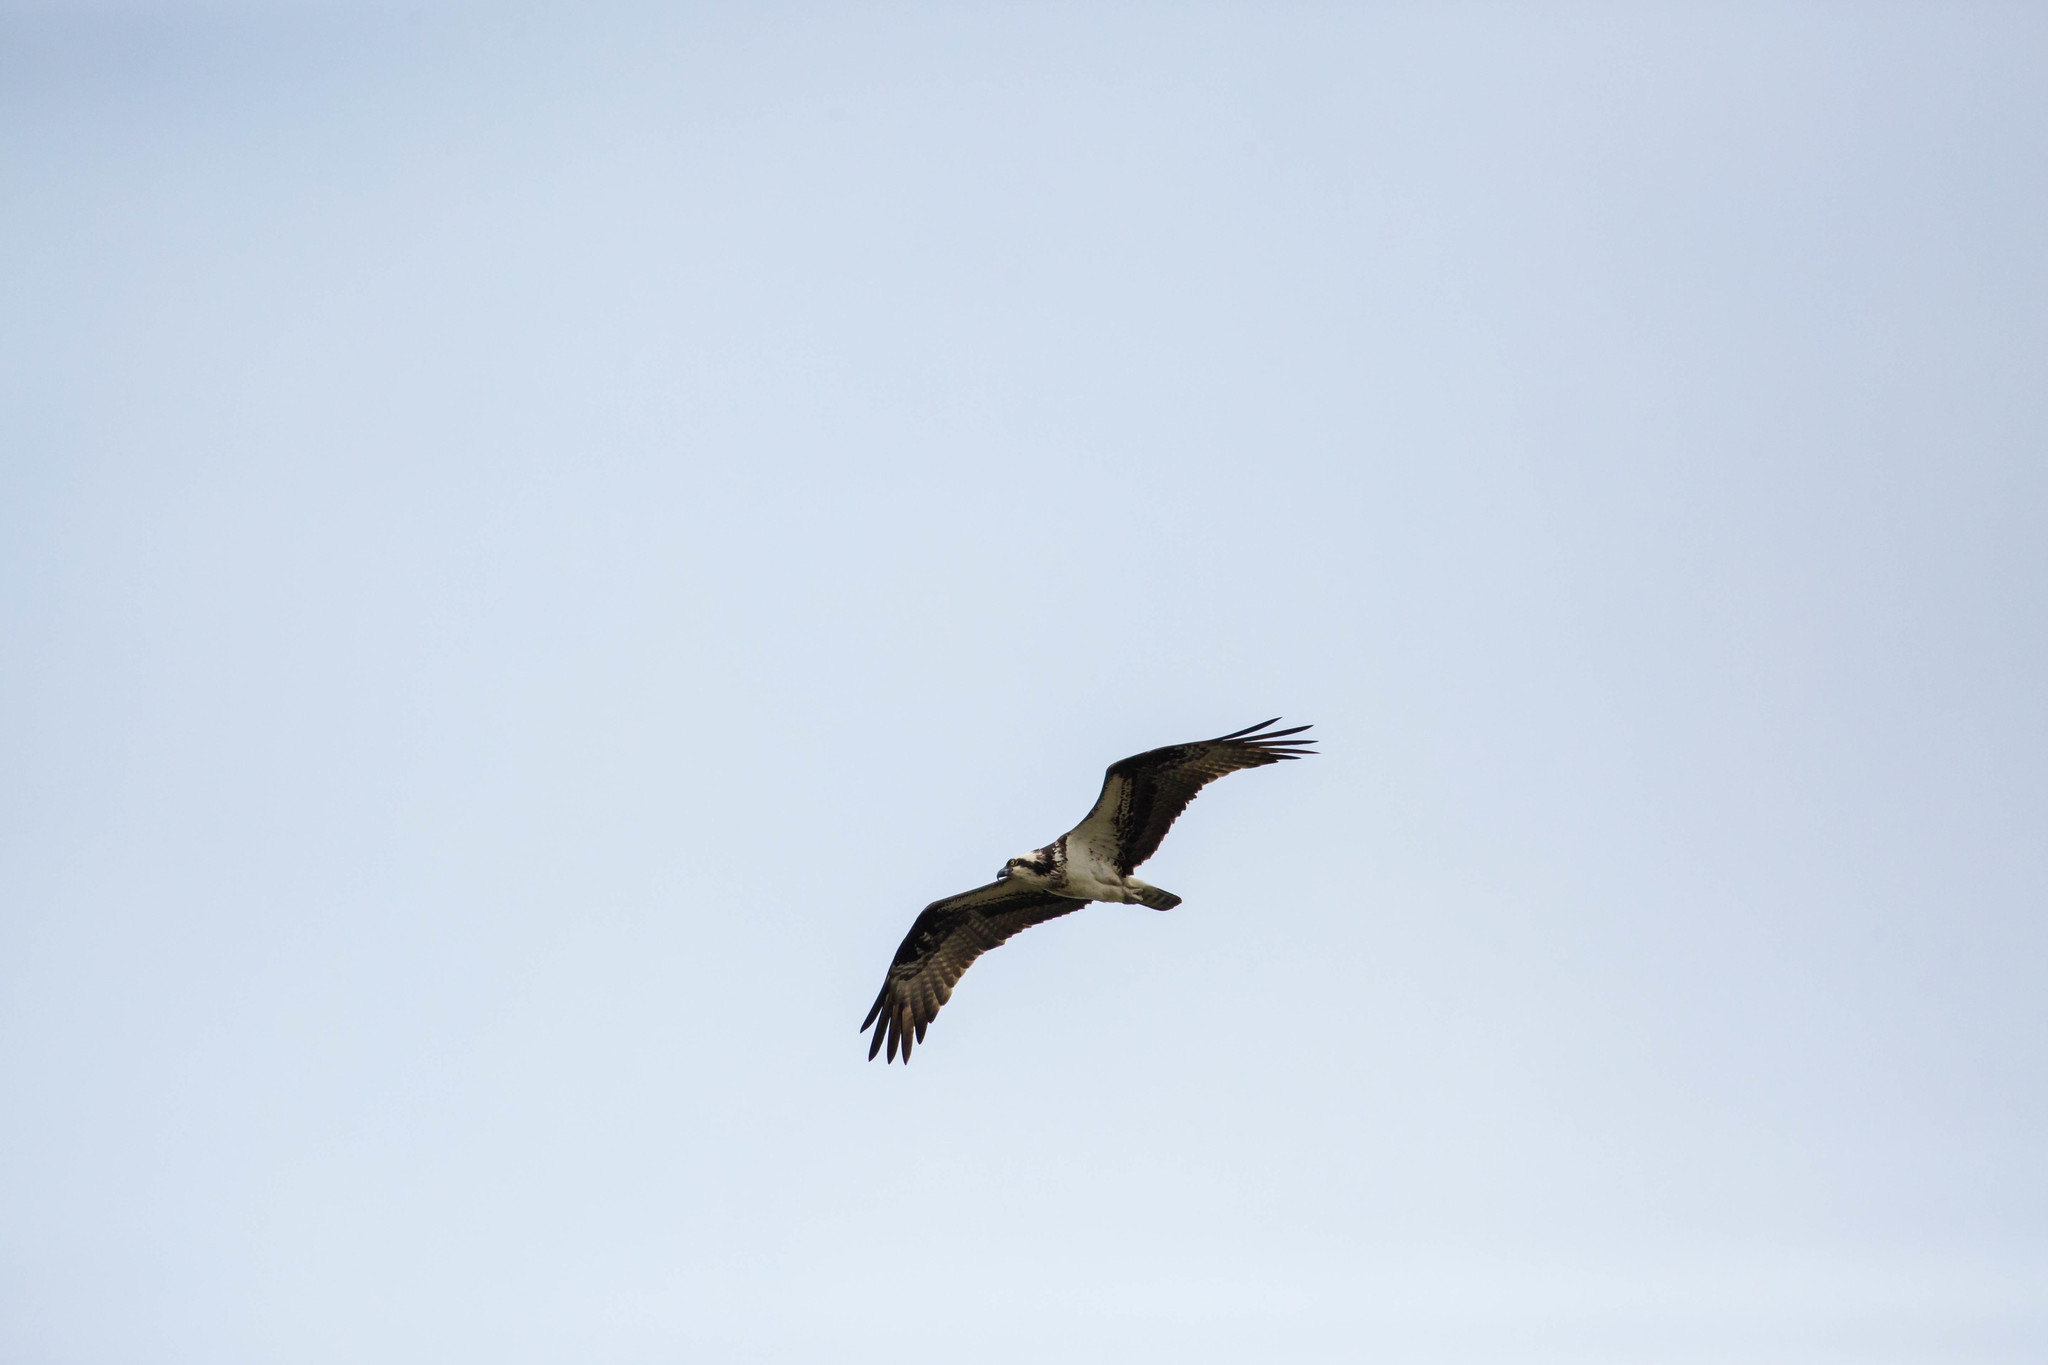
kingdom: Animalia
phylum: Chordata
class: Aves
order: Accipitriformes
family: Pandionidae
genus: Pandion
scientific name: Pandion haliaetus
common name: Osprey
